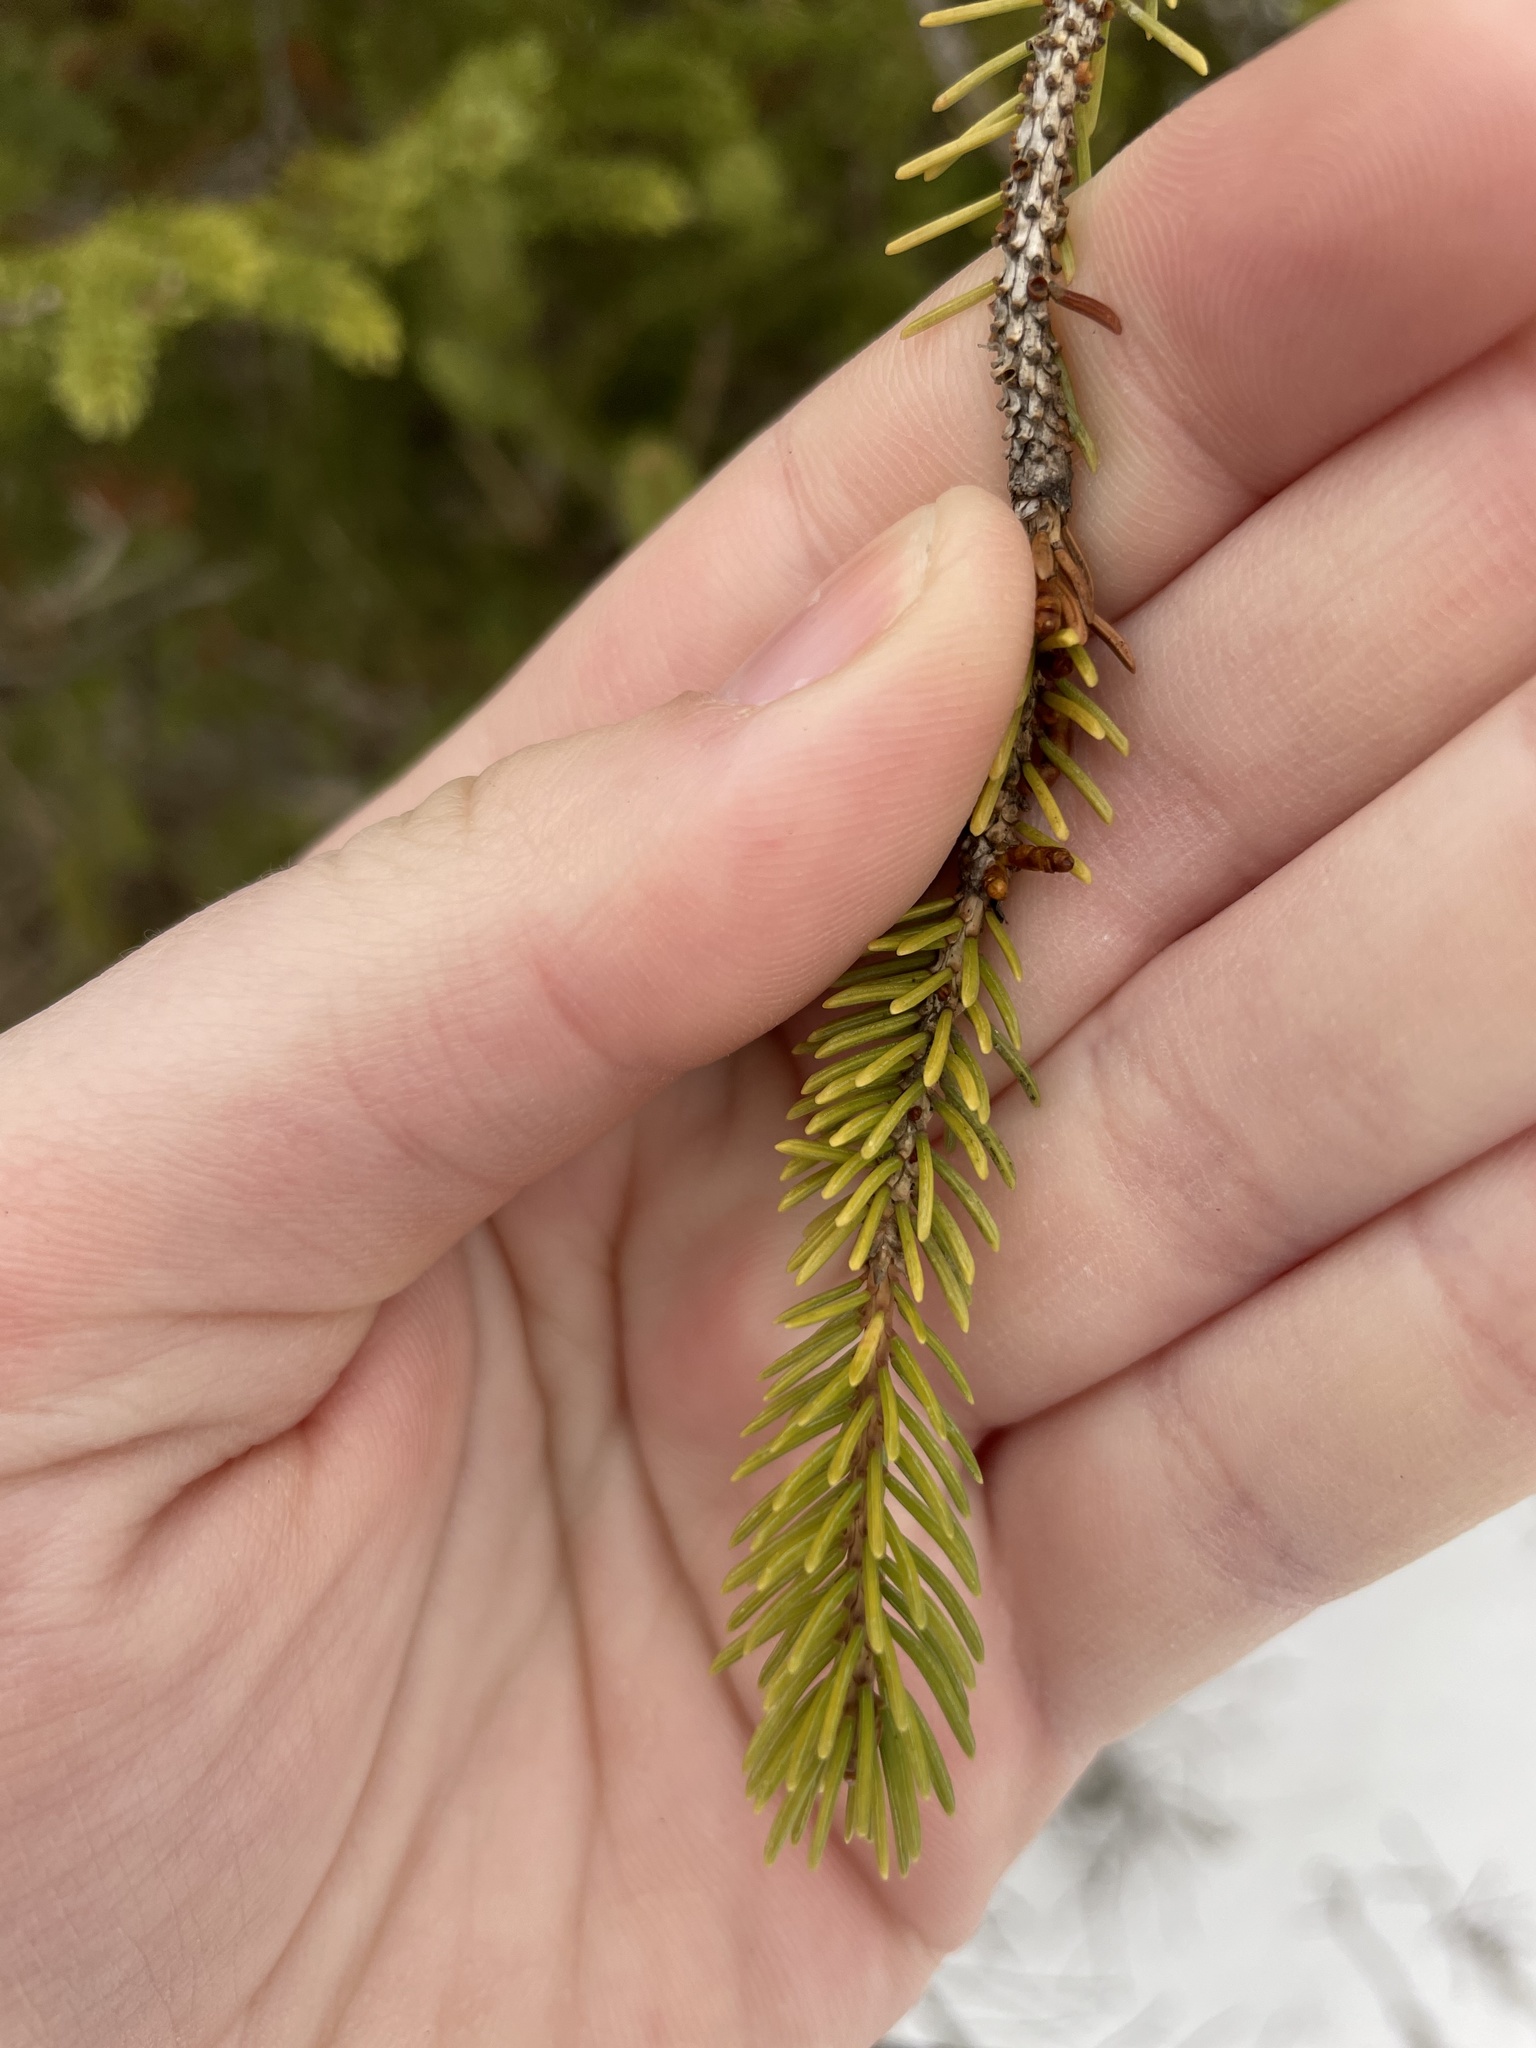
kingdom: Plantae
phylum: Tracheophyta
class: Pinopsida
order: Pinales
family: Pinaceae
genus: Picea
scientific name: Picea glauca
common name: White spruce
